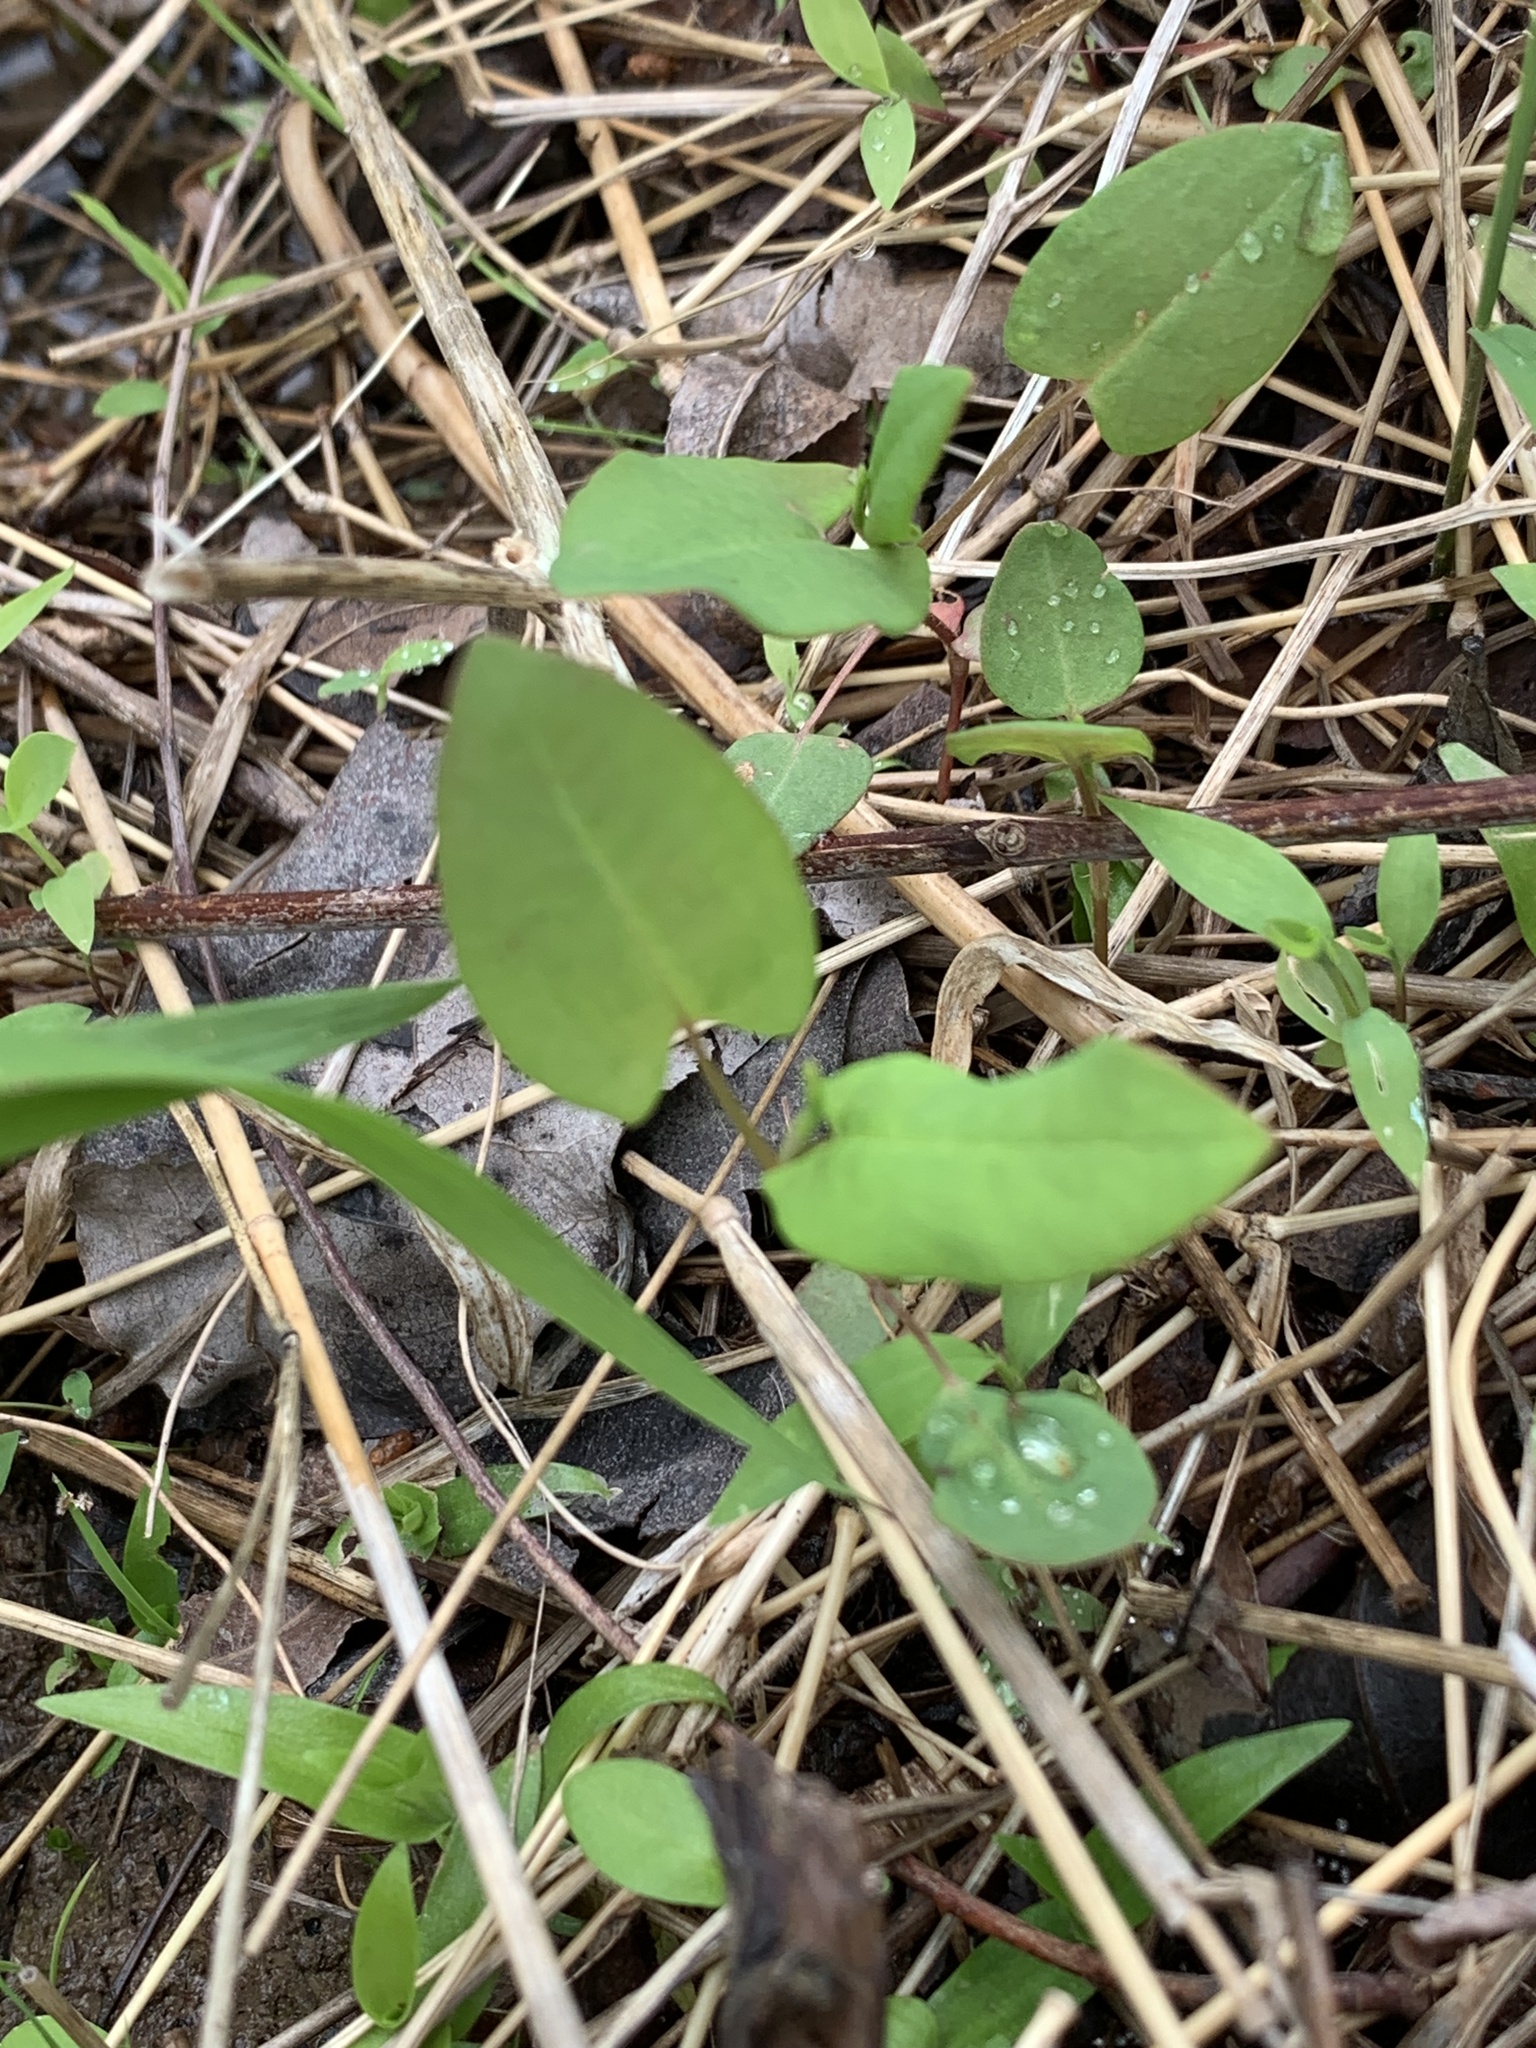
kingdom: Plantae
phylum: Tracheophyta
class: Magnoliopsida
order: Caryophyllales
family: Polygonaceae
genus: Persicaria
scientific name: Persicaria sagittata
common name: American tearthumb
